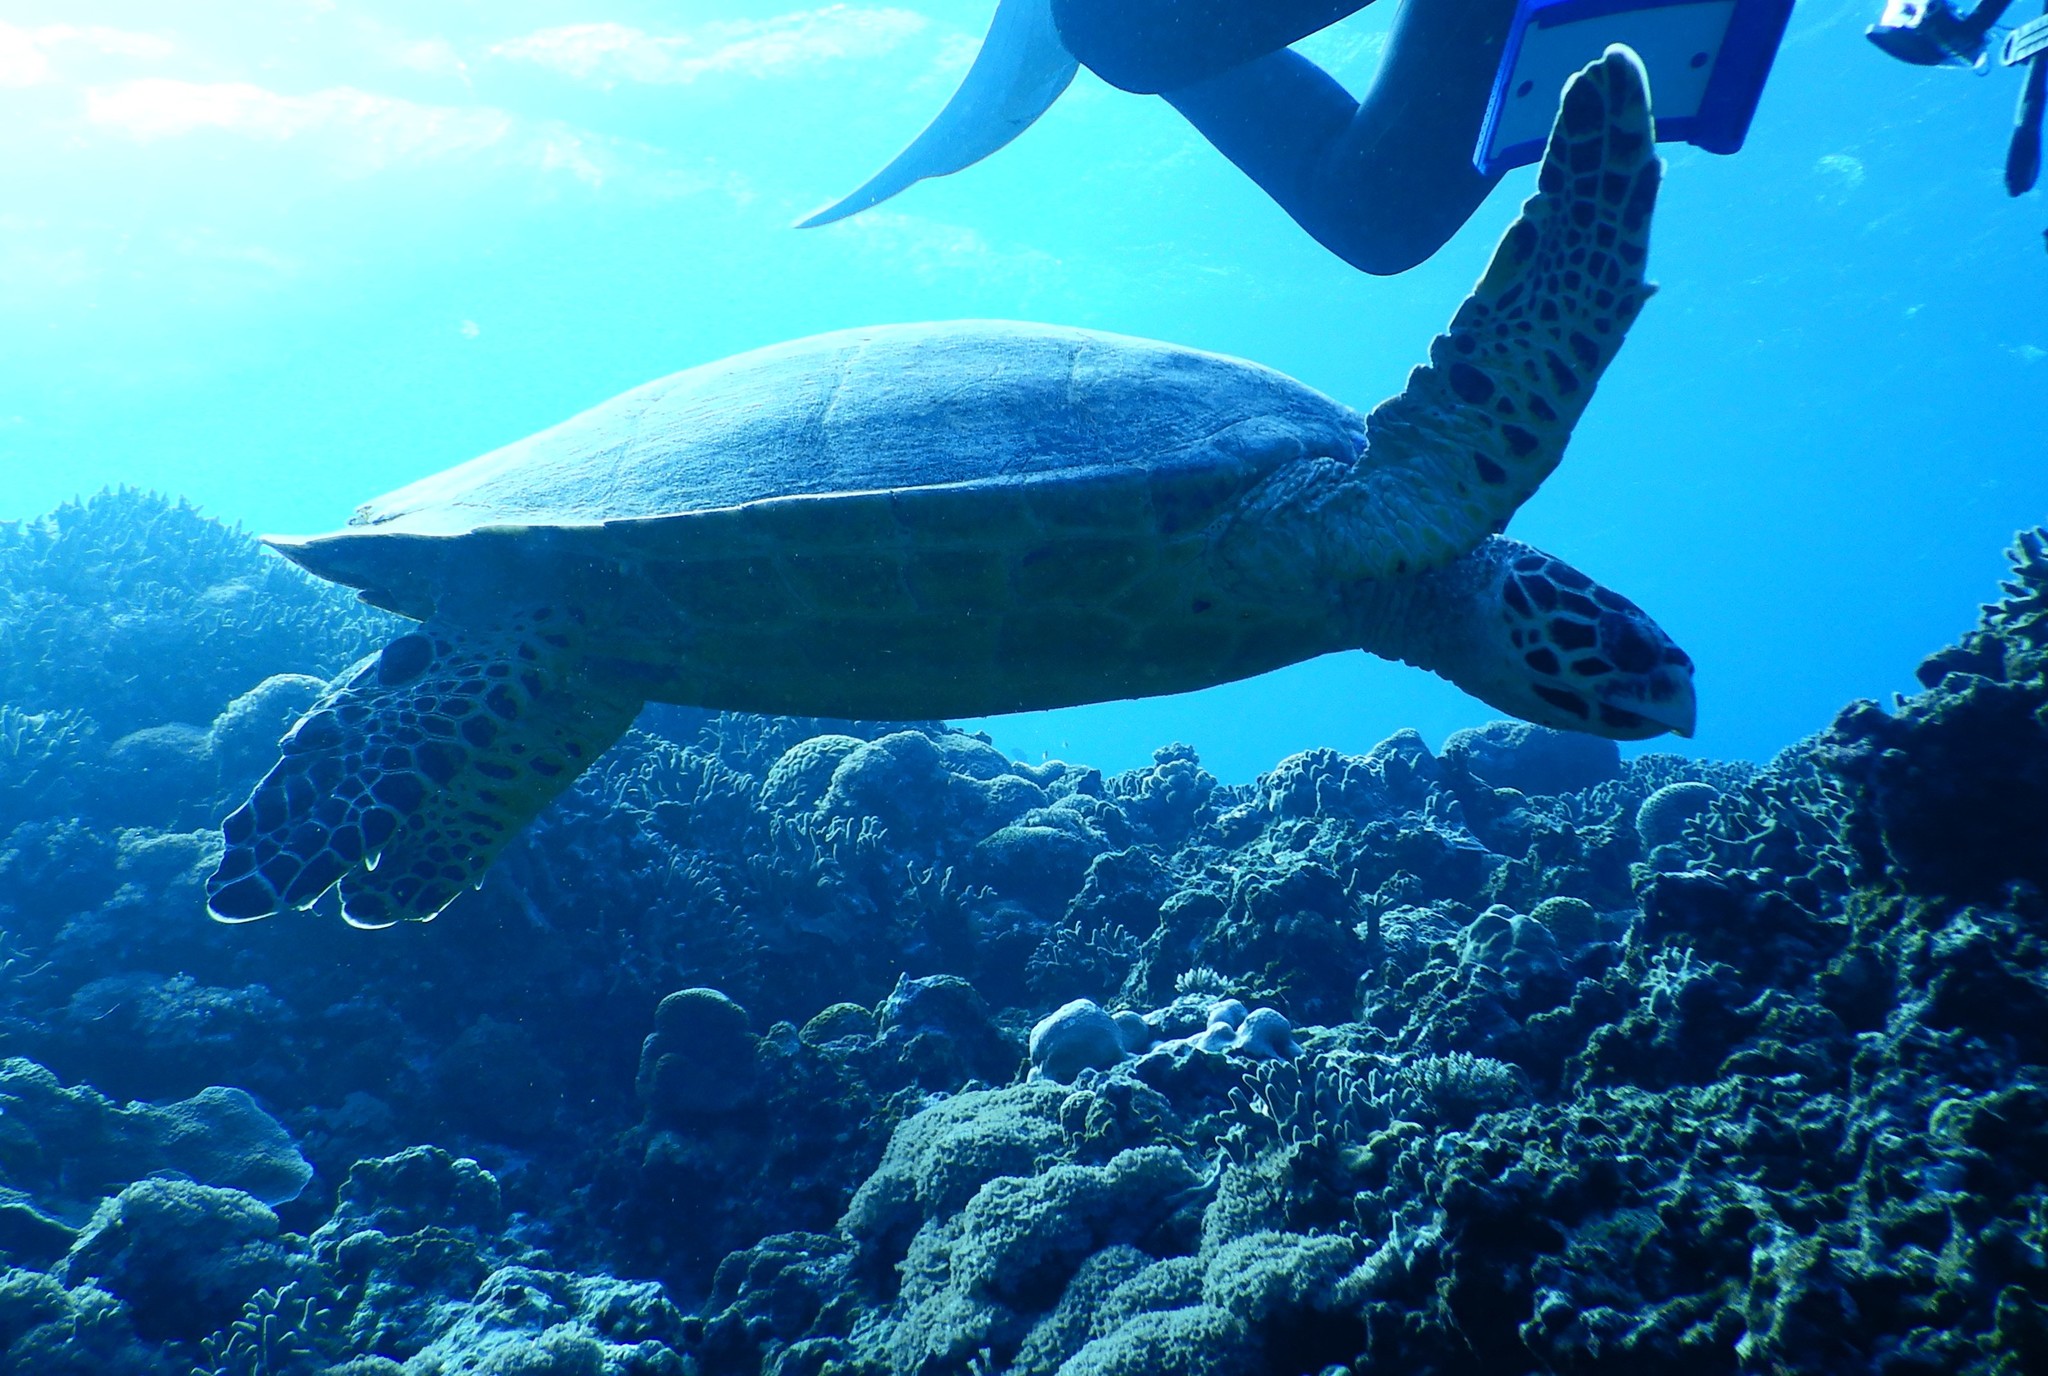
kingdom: Animalia
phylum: Chordata
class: Testudines
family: Cheloniidae
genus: Eretmochelys
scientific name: Eretmochelys imbricata
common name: Hawksbill turtle
